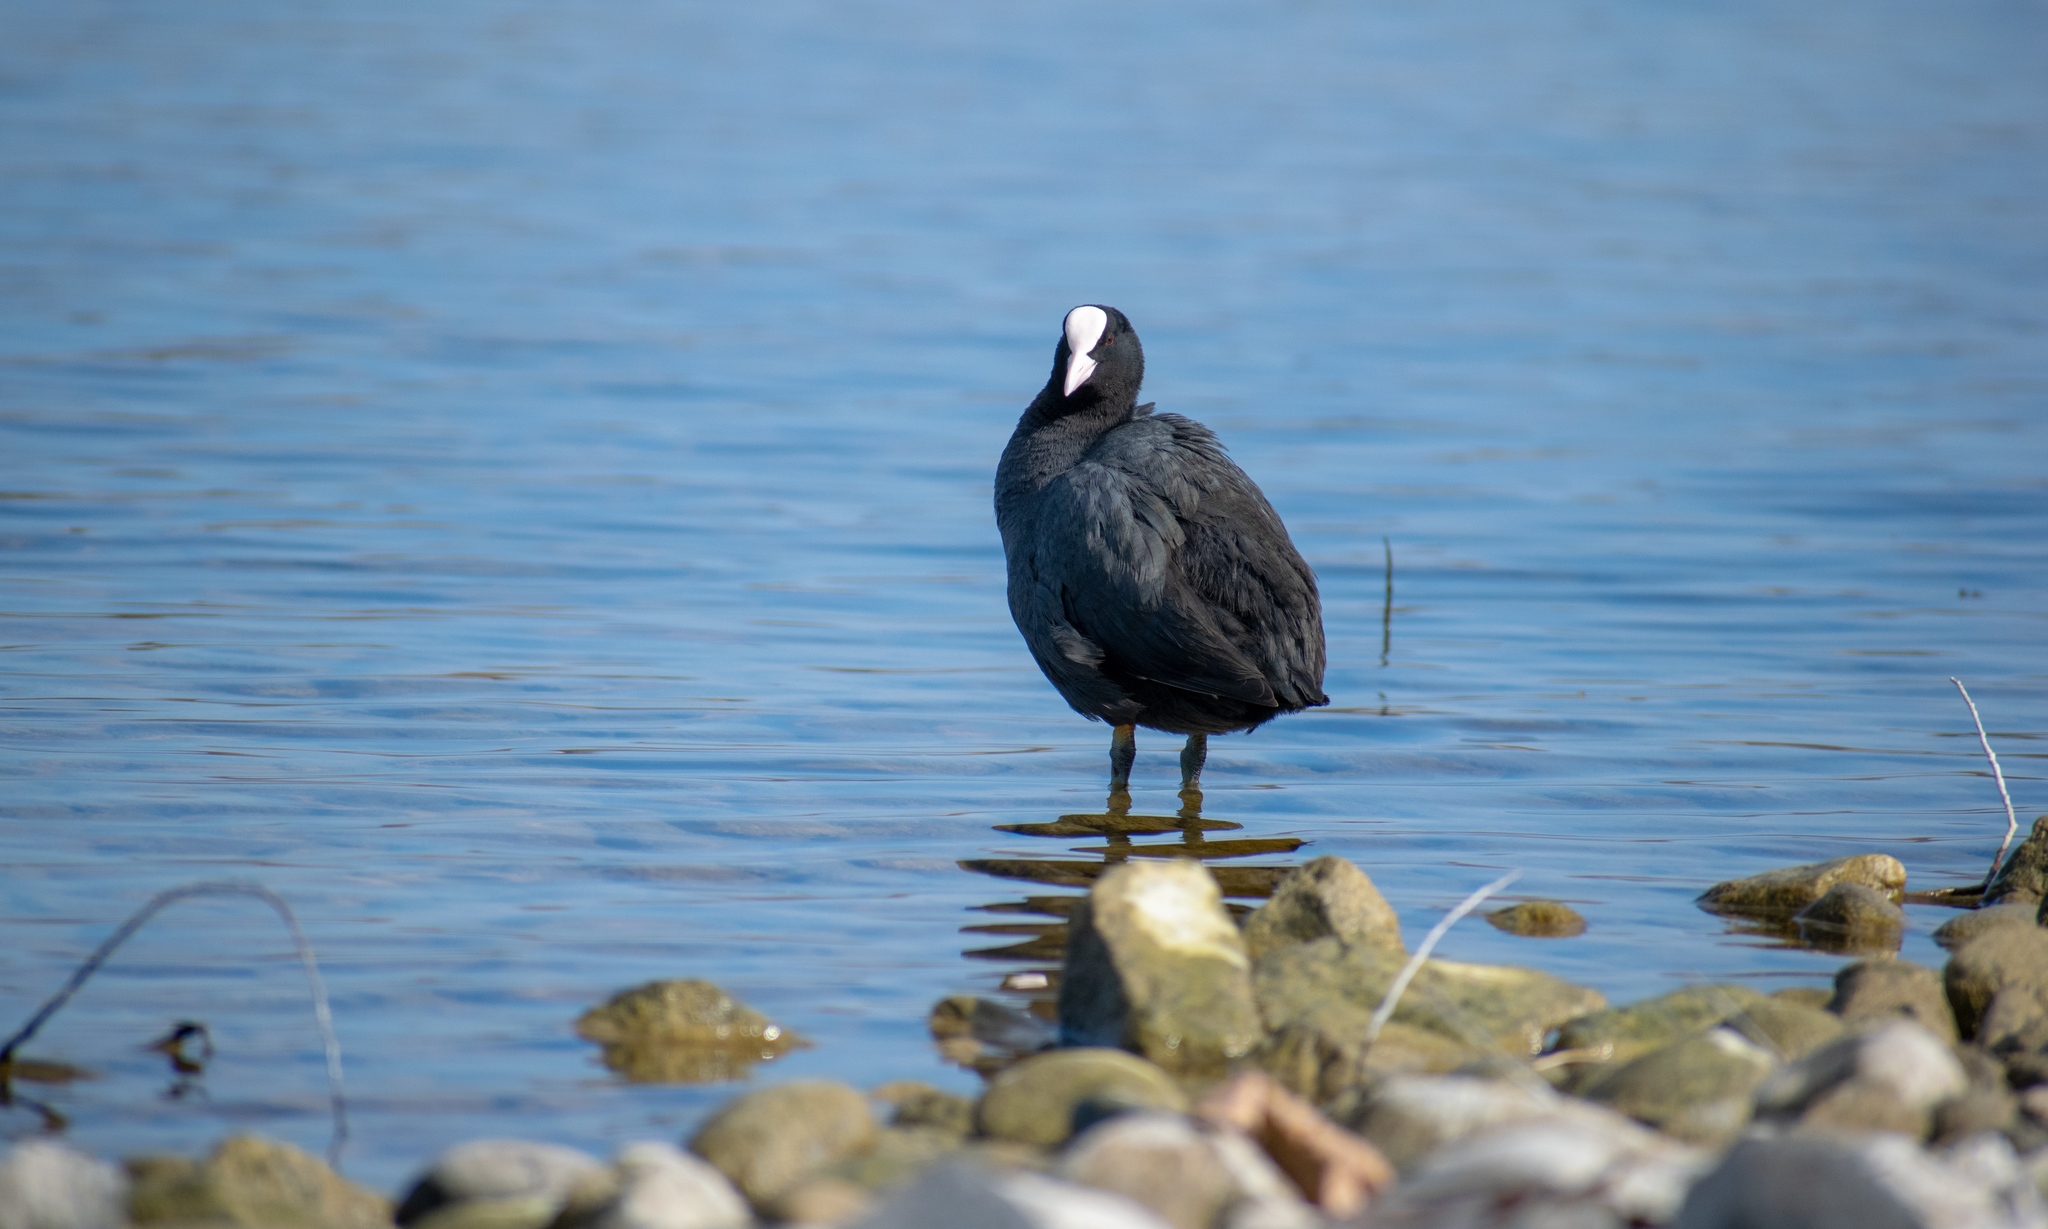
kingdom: Animalia
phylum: Chordata
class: Aves
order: Gruiformes
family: Rallidae
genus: Fulica
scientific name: Fulica atra
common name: Eurasian coot
